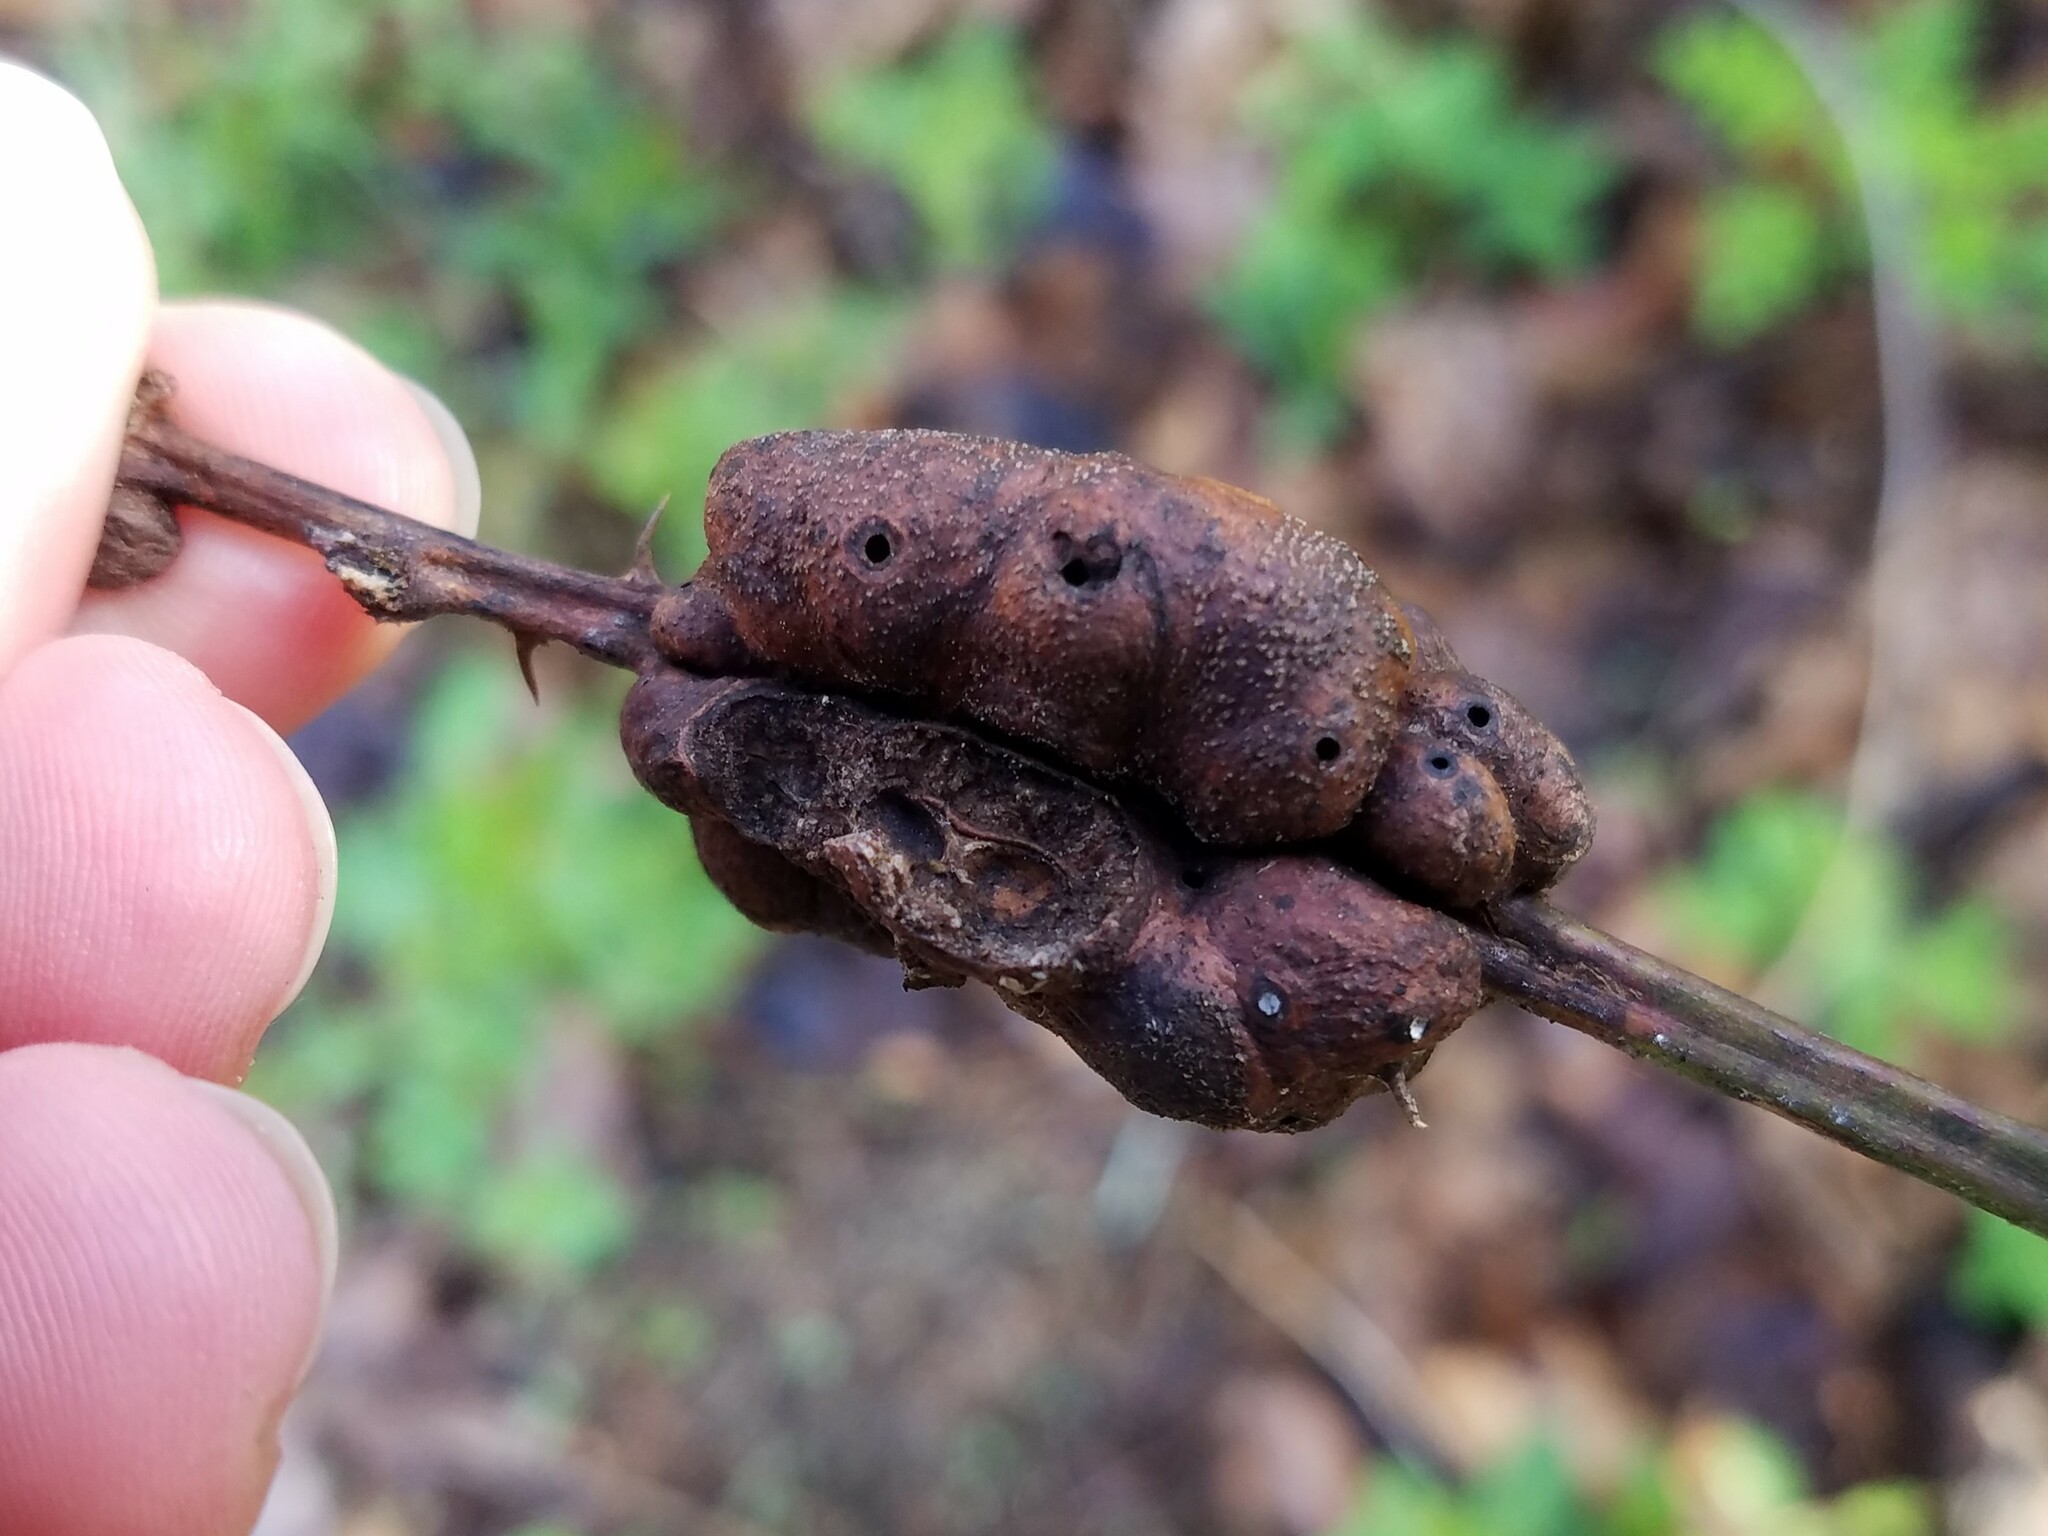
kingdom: Animalia
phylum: Arthropoda
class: Insecta
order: Hymenoptera
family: Cynipidae
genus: Diastrophus
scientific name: Diastrophus
